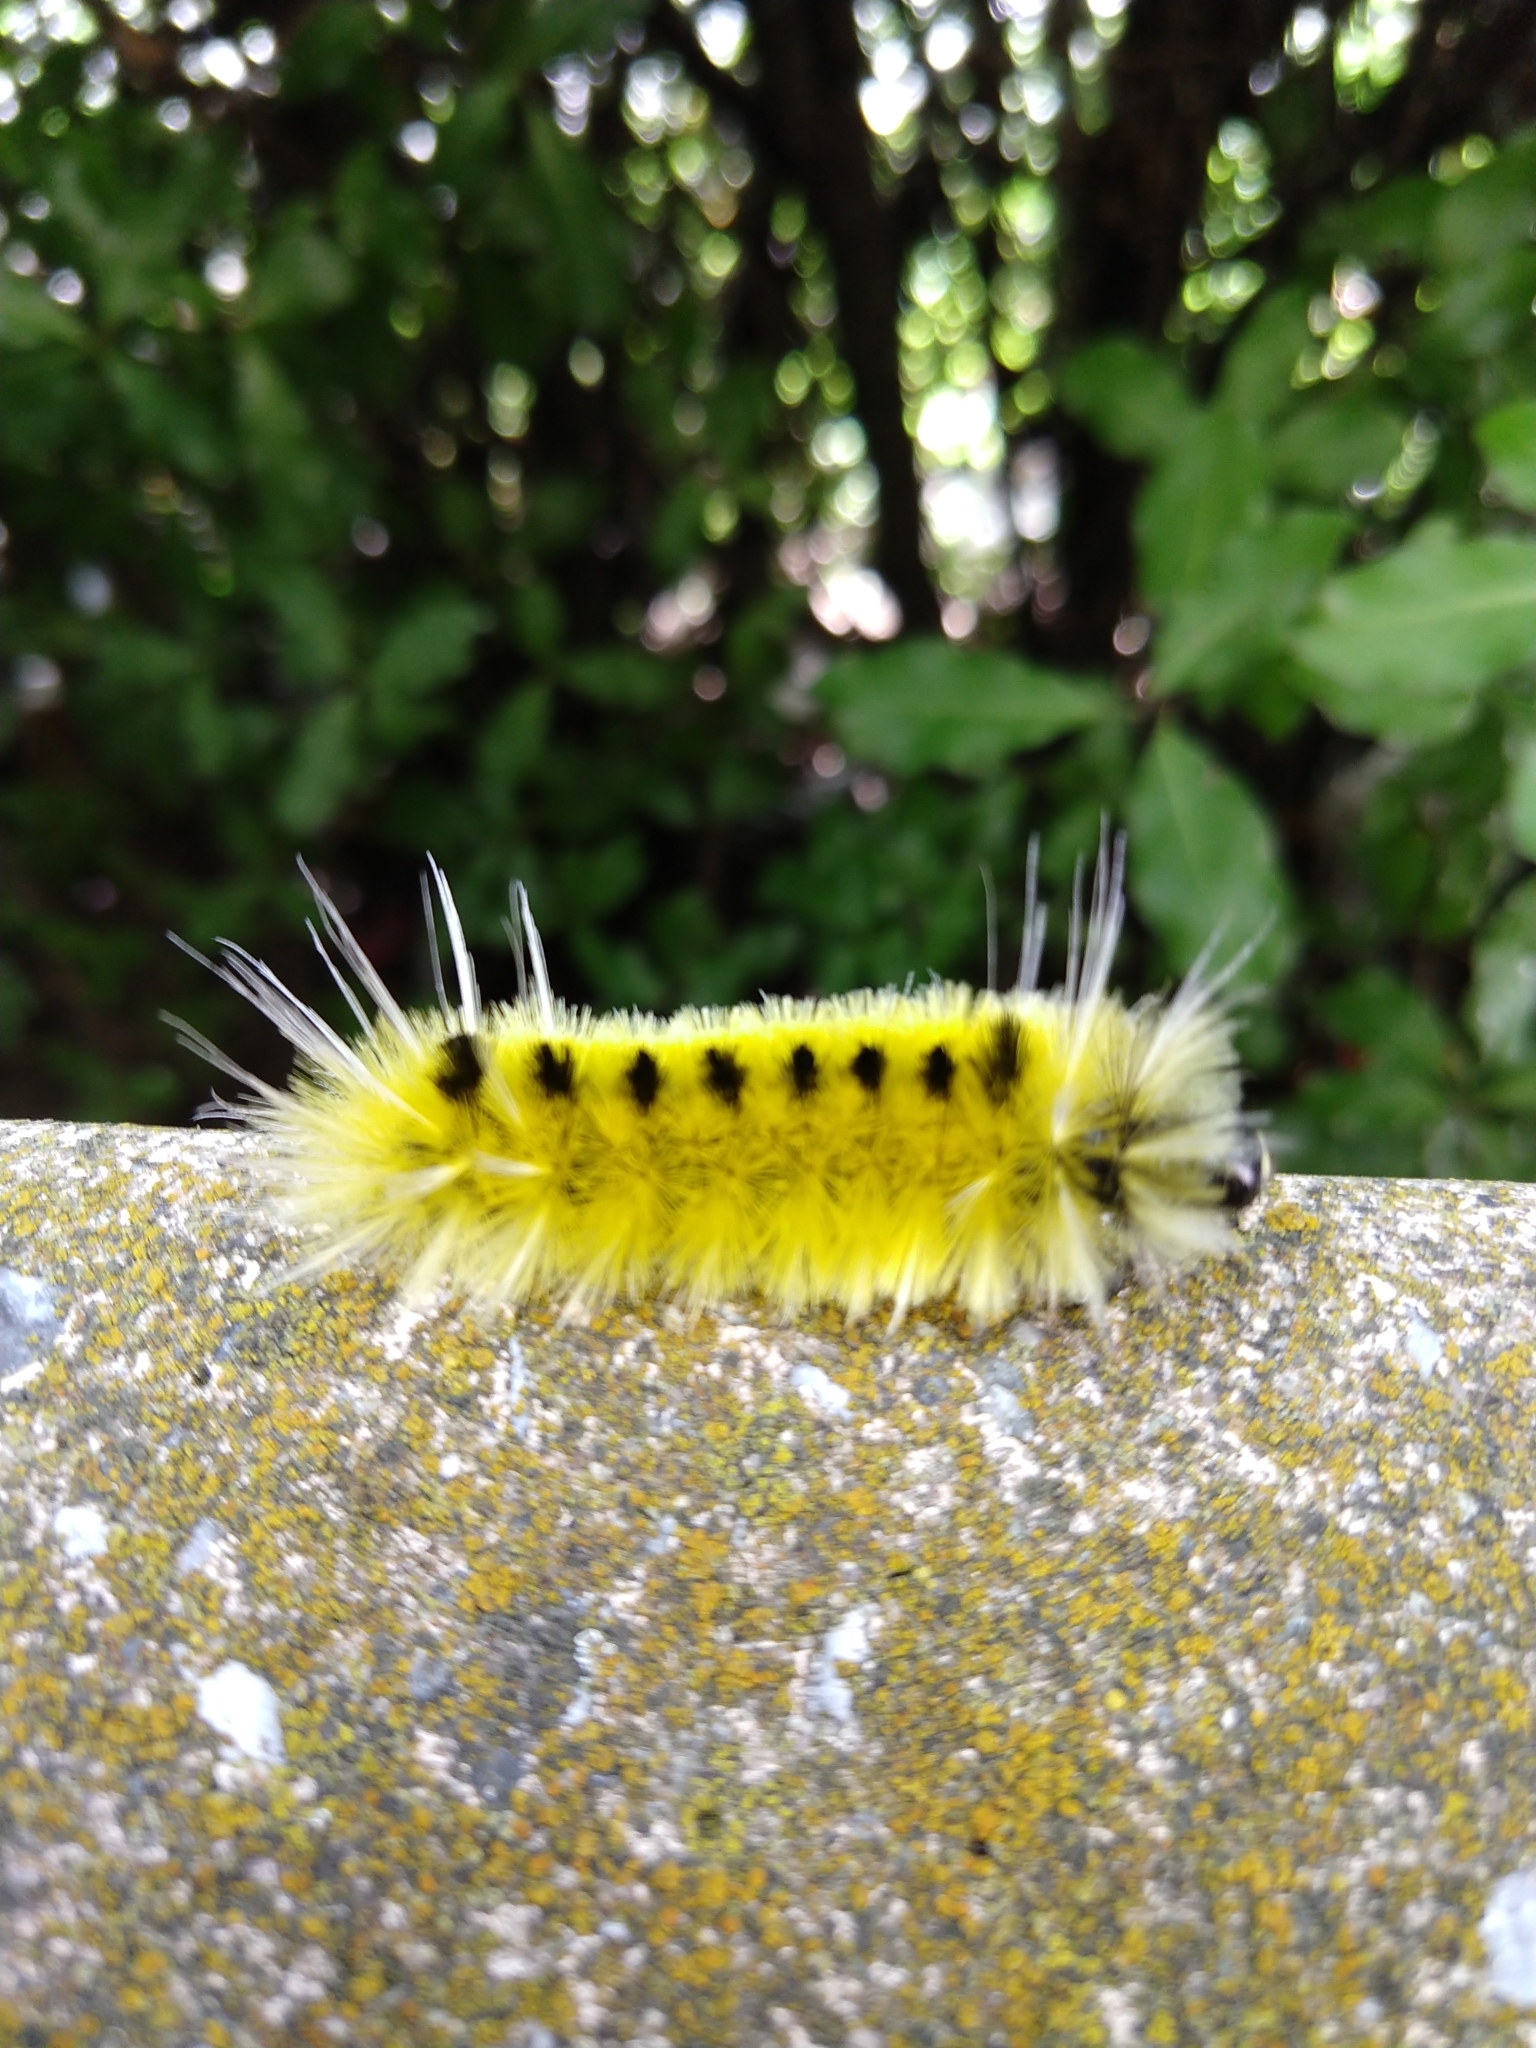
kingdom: Animalia
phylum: Arthropoda
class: Insecta
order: Lepidoptera
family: Erebidae
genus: Lophocampa
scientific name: Lophocampa maculata
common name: Spotted tussock moth
